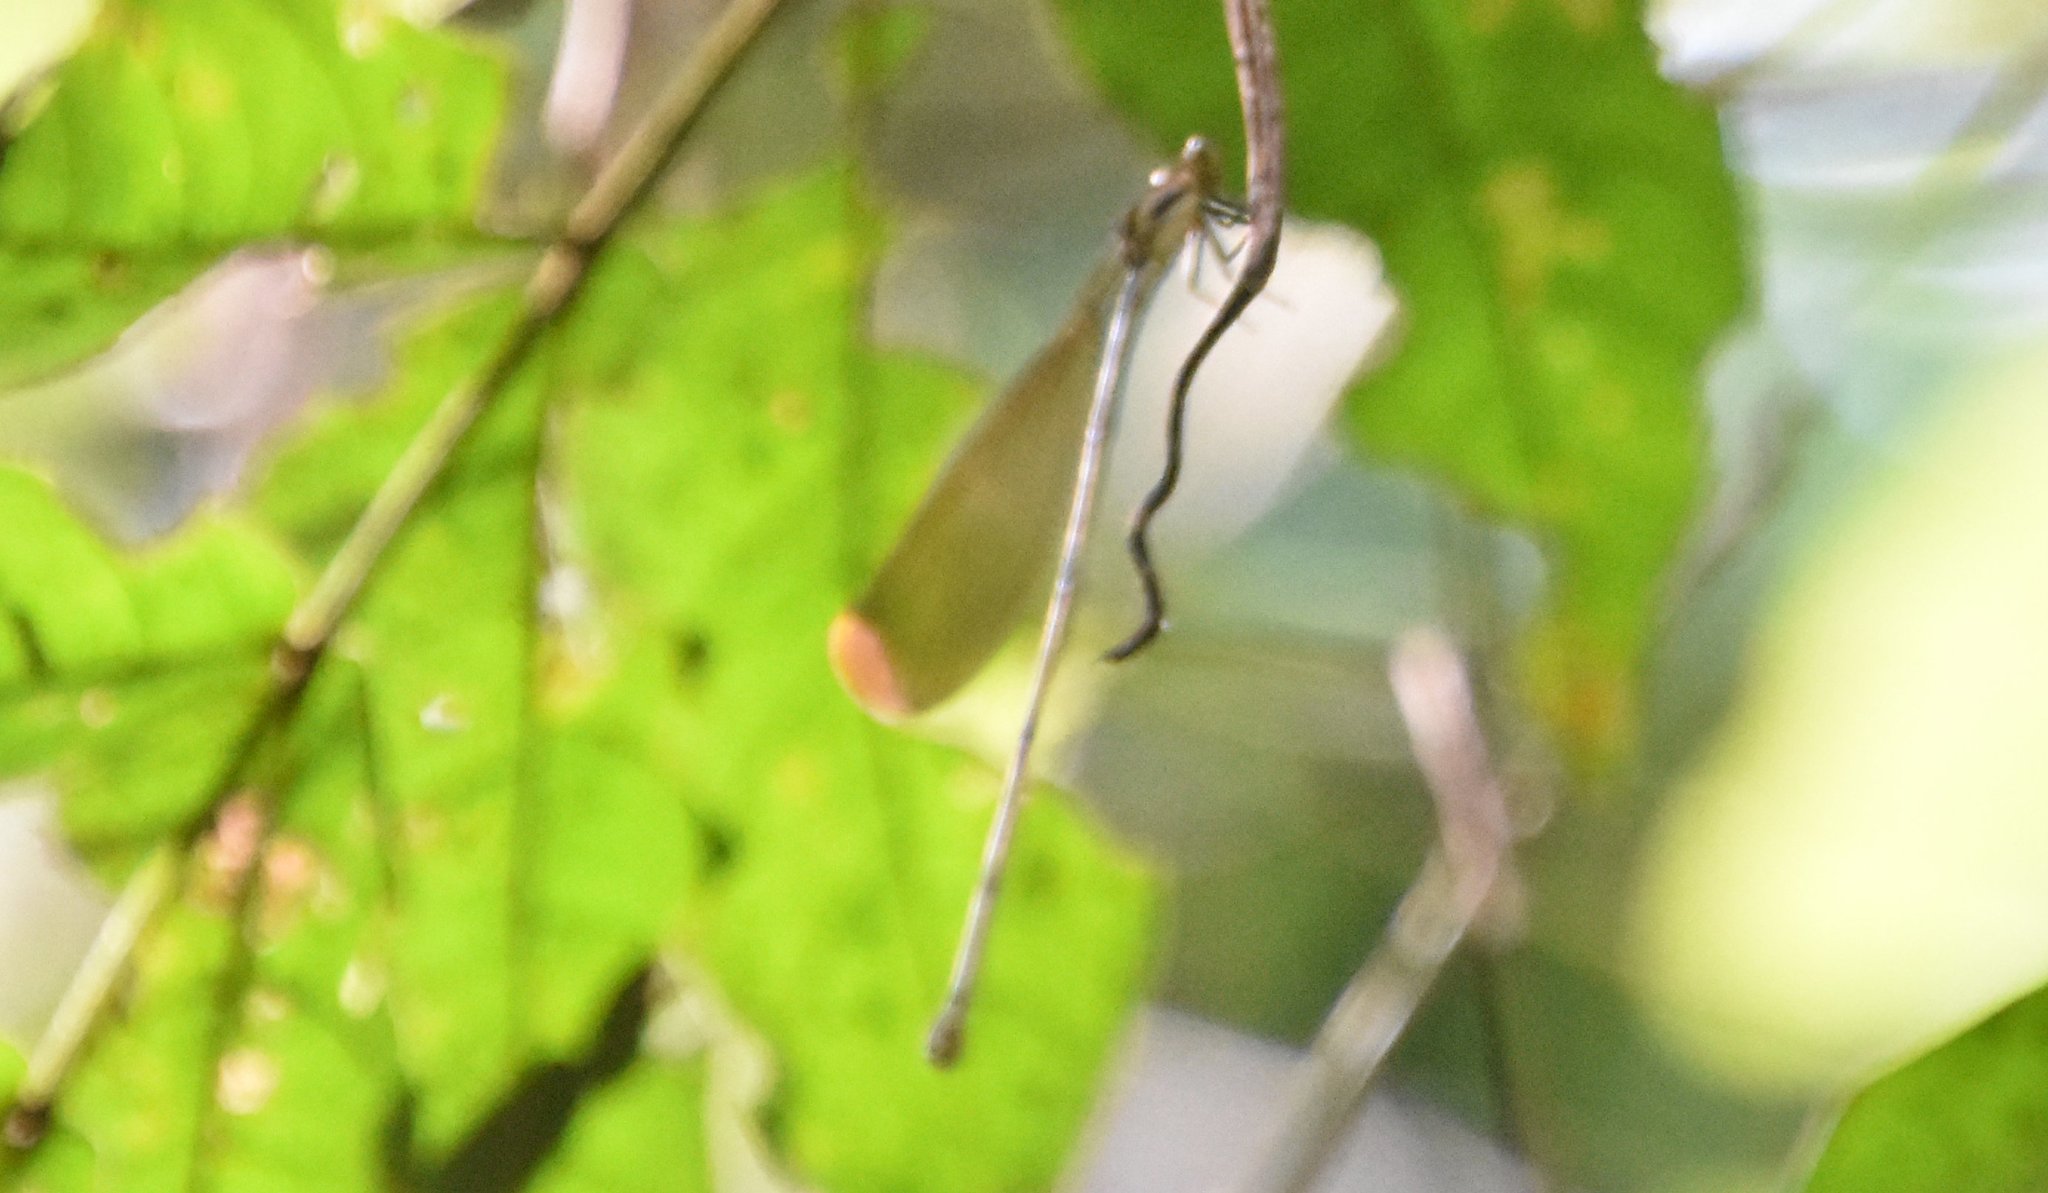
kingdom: Animalia
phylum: Arthropoda
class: Insecta
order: Odonata
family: Coenagrionidae
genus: Mecistogaster
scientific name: Mecistogaster ornata
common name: Ornate helicopter
